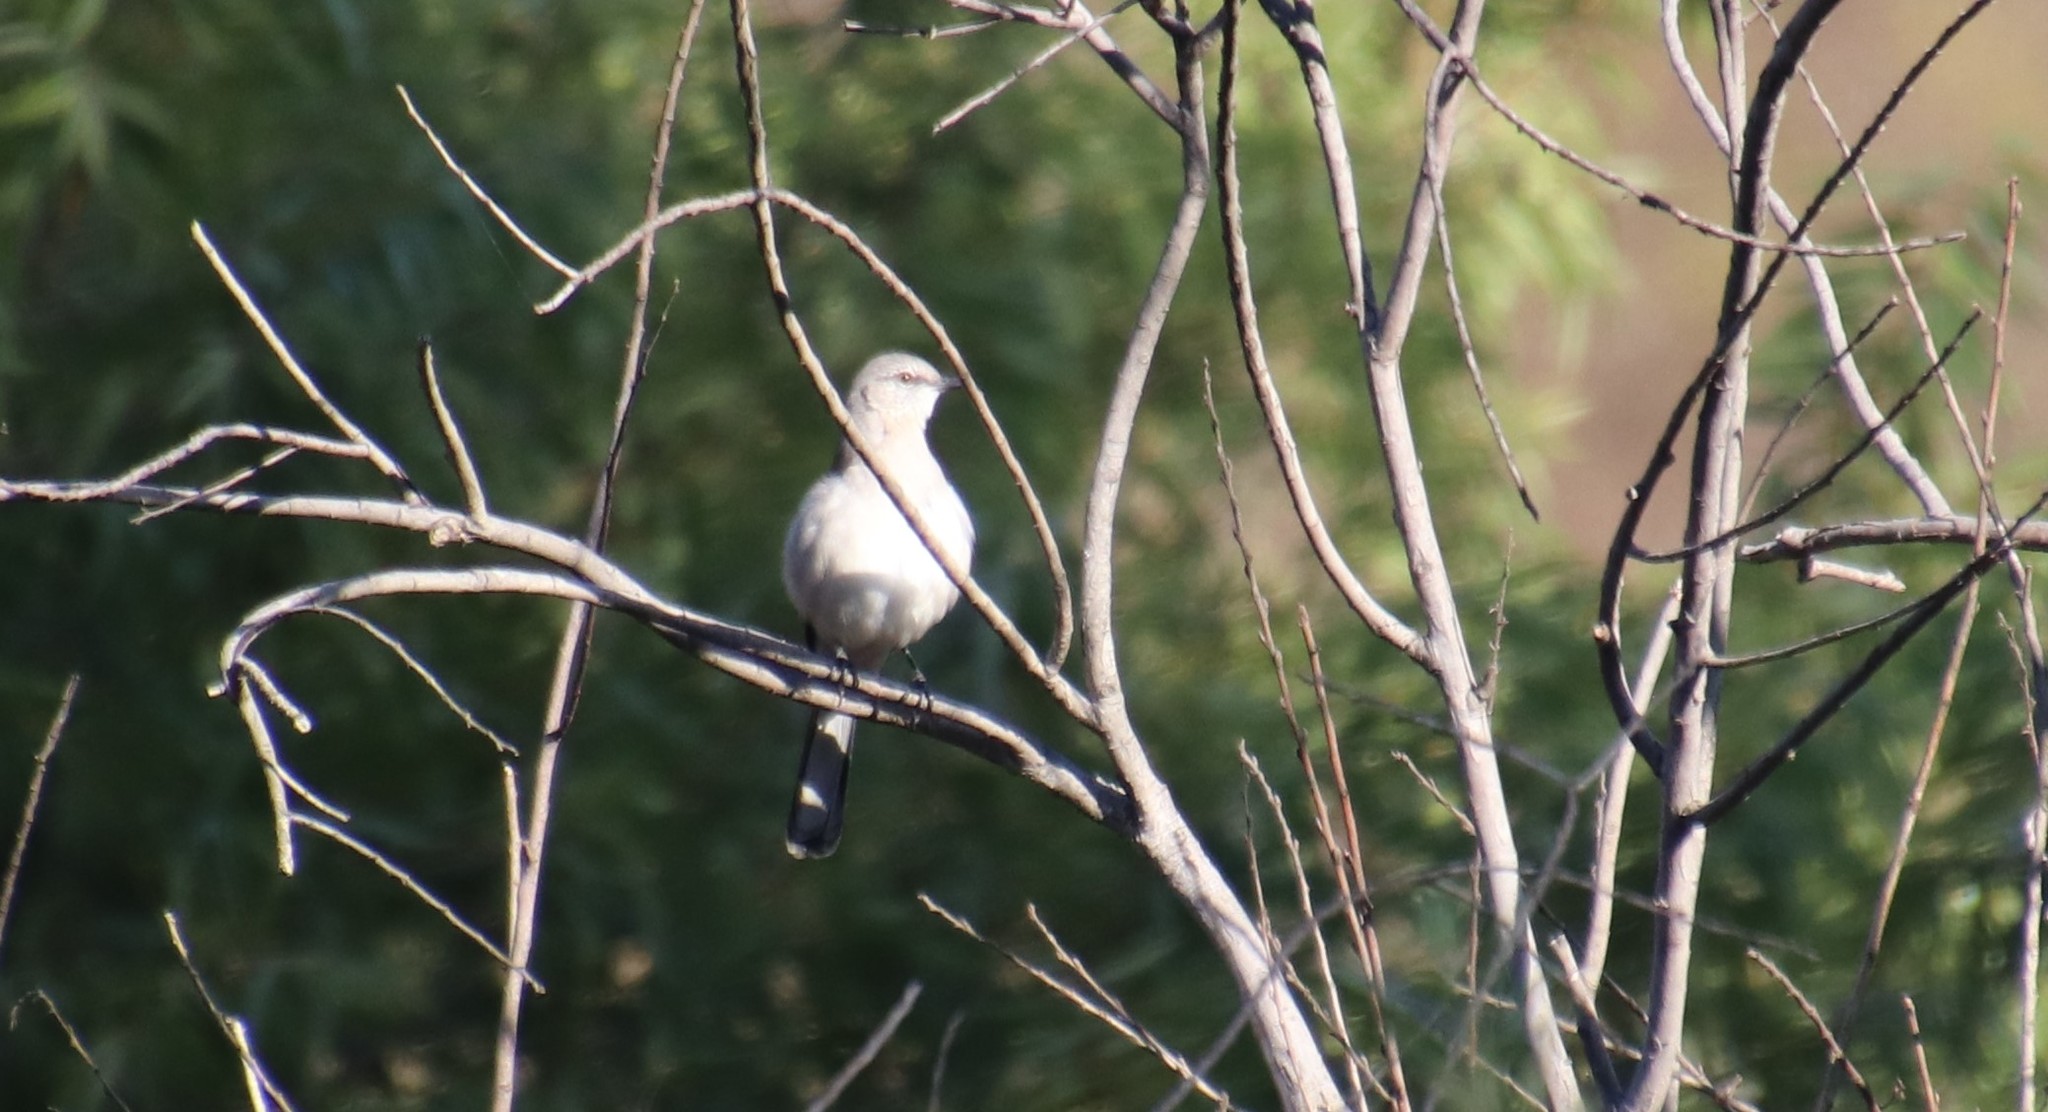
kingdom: Animalia
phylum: Chordata
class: Aves
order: Passeriformes
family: Mimidae
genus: Mimus
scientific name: Mimus polyglottos
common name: Northern mockingbird
